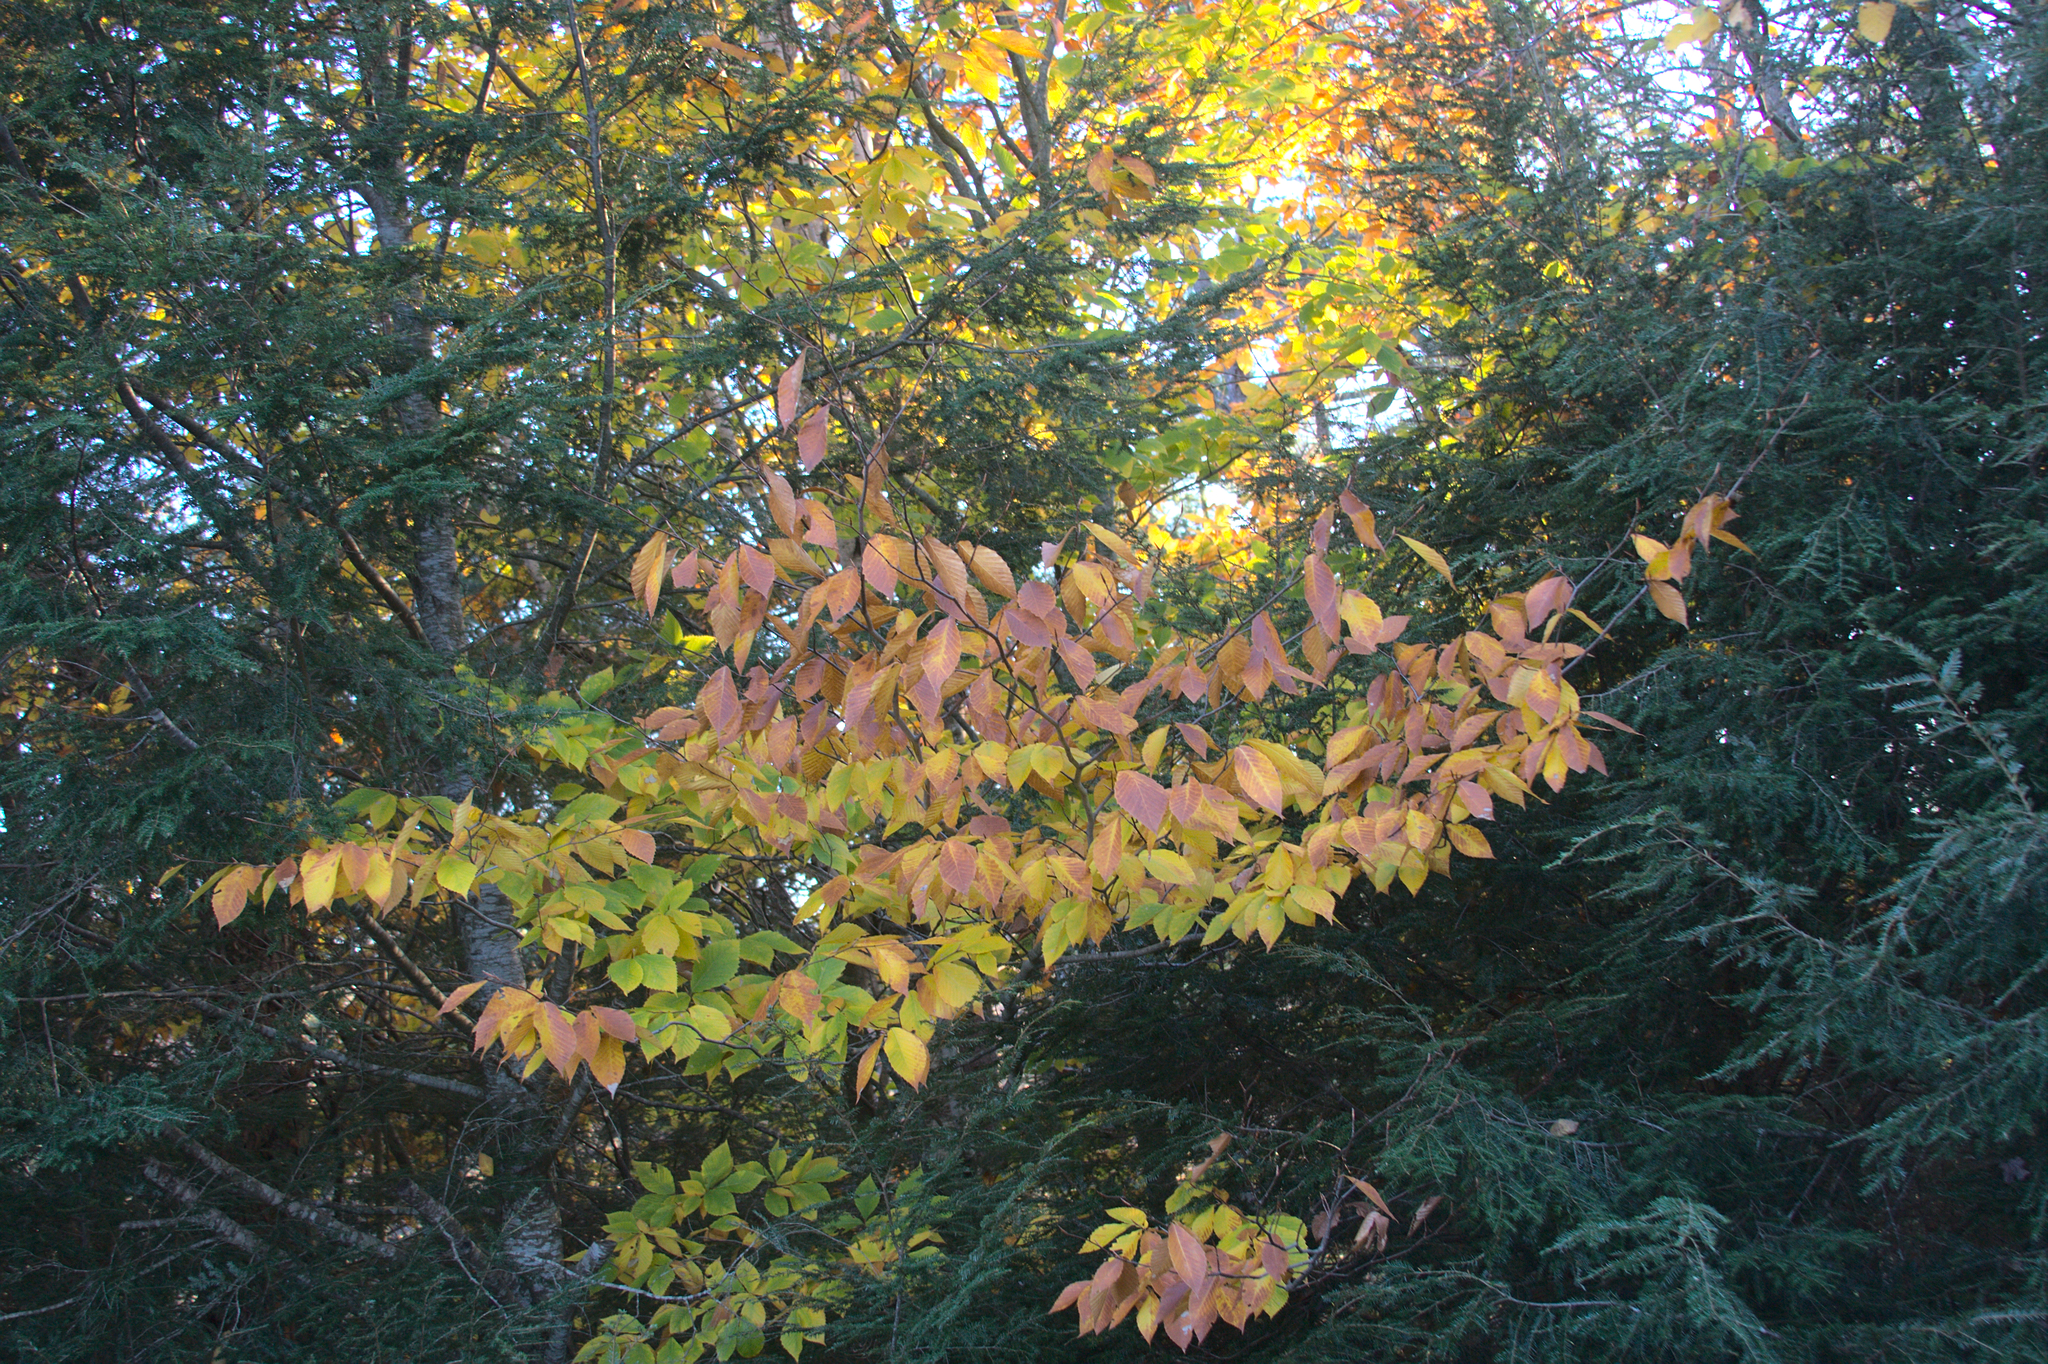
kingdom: Plantae
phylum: Tracheophyta
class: Magnoliopsida
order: Fagales
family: Fagaceae
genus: Fagus
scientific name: Fagus grandifolia
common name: American beech
